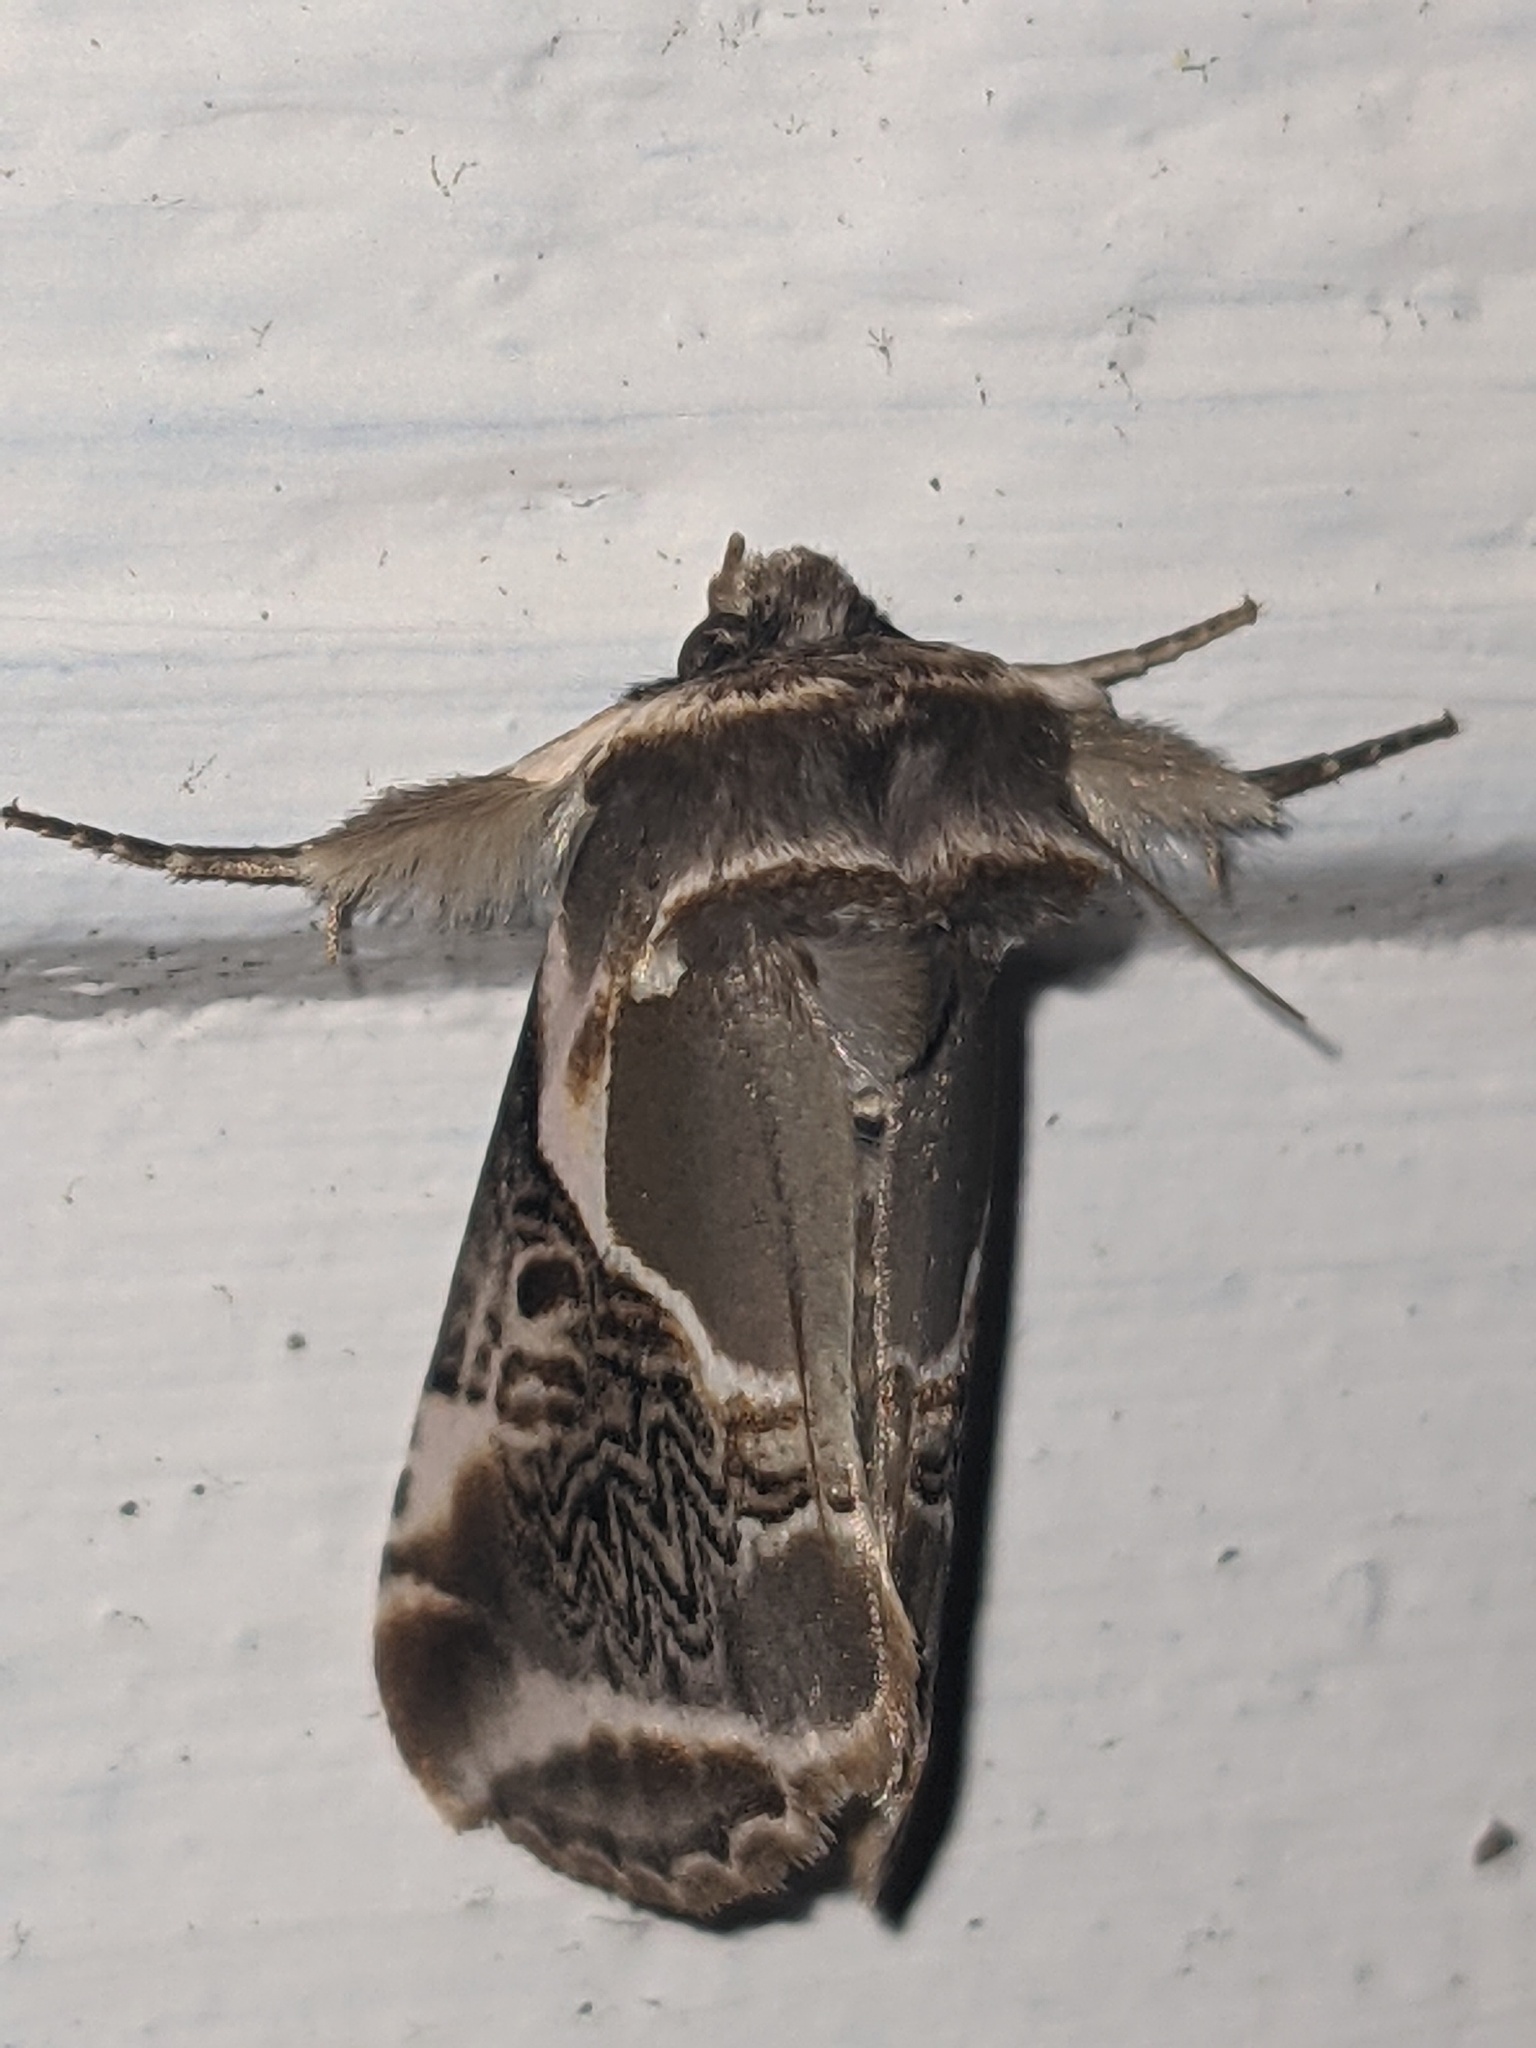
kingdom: Animalia
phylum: Arthropoda
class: Insecta
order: Lepidoptera
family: Drepanidae
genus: Habrosyne
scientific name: Habrosyne scripta
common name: Lettered habrosyne moth
